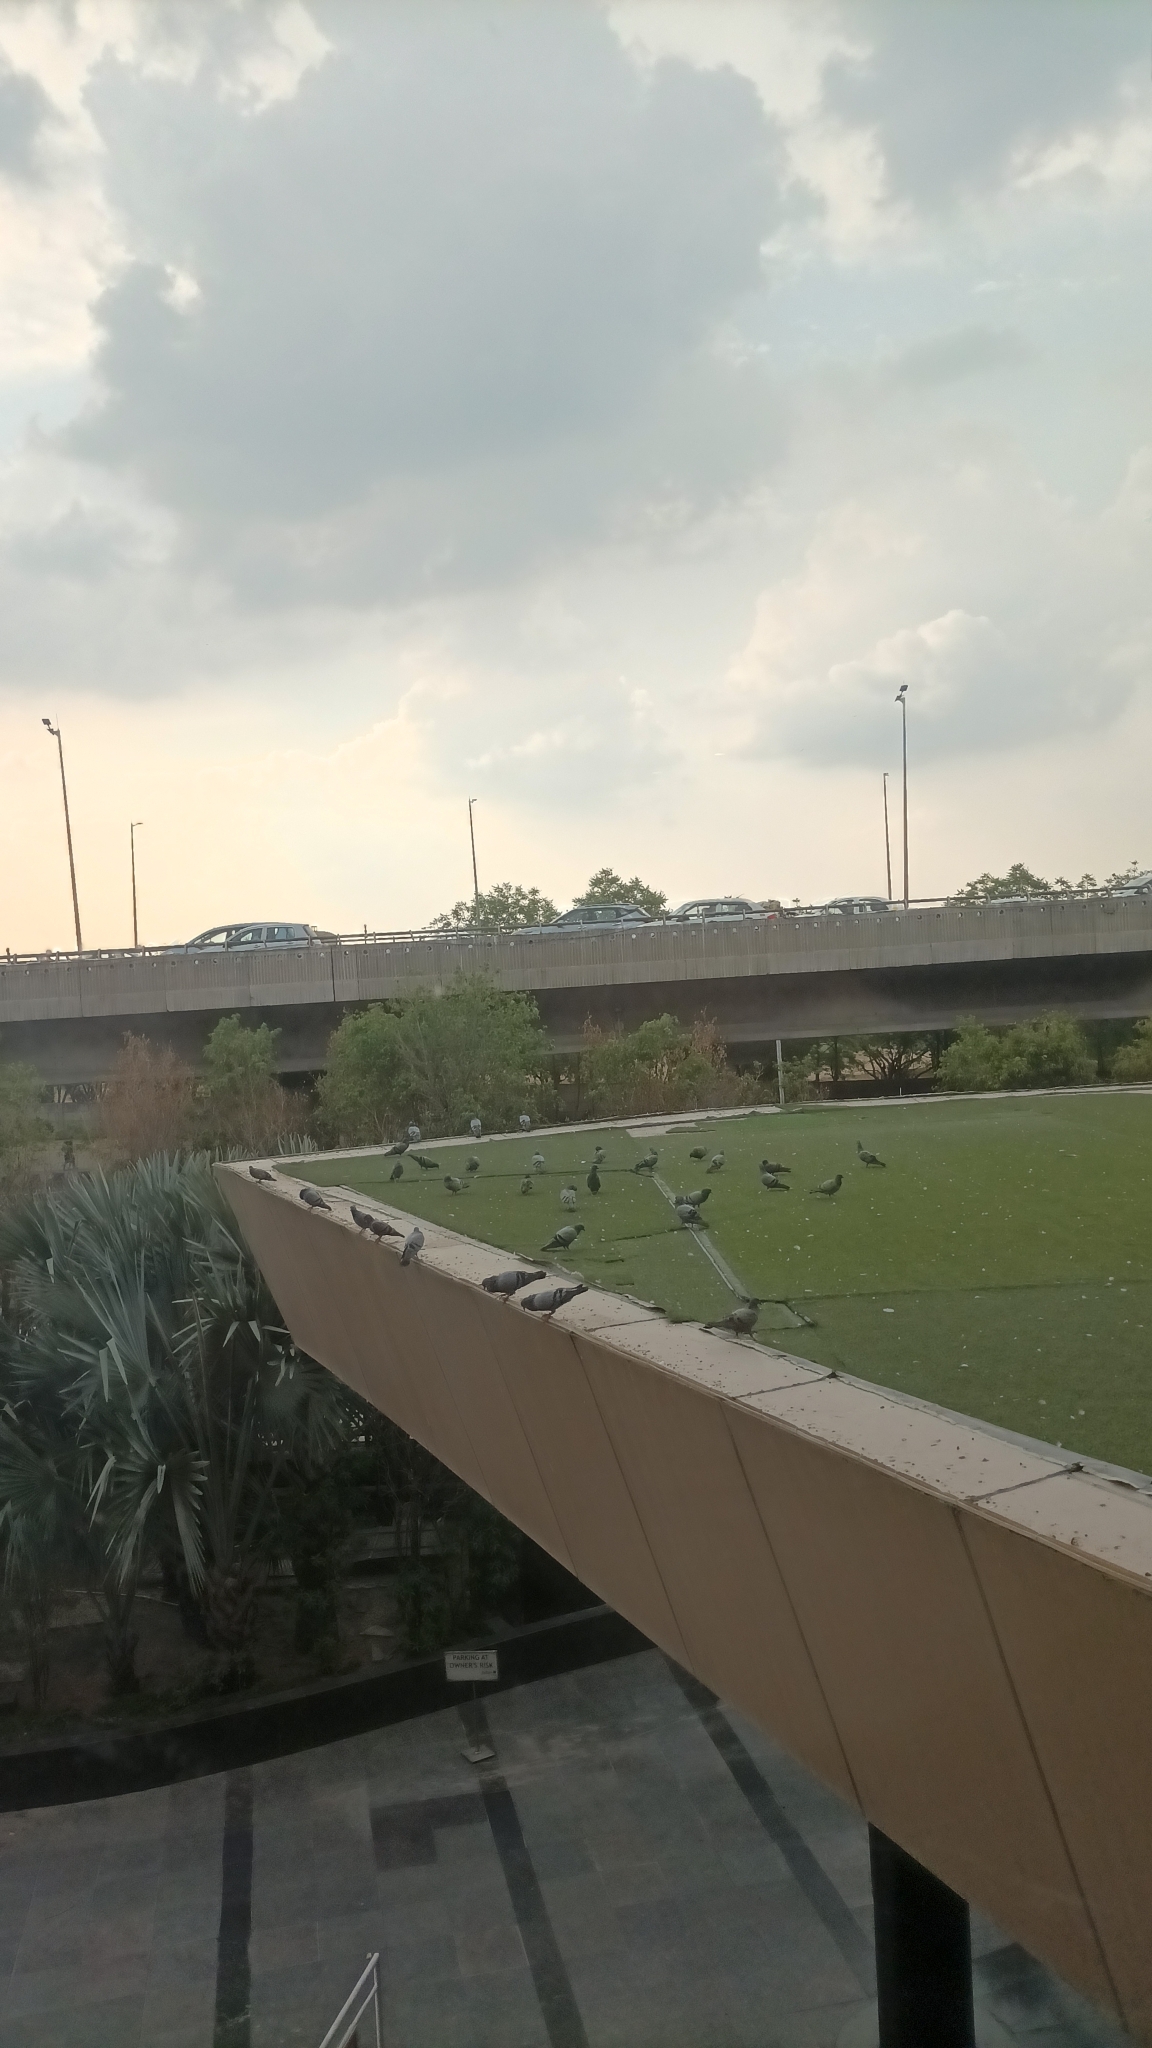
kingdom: Animalia
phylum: Chordata
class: Aves
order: Columbiformes
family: Columbidae
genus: Columba
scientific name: Columba livia
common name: Rock pigeon
